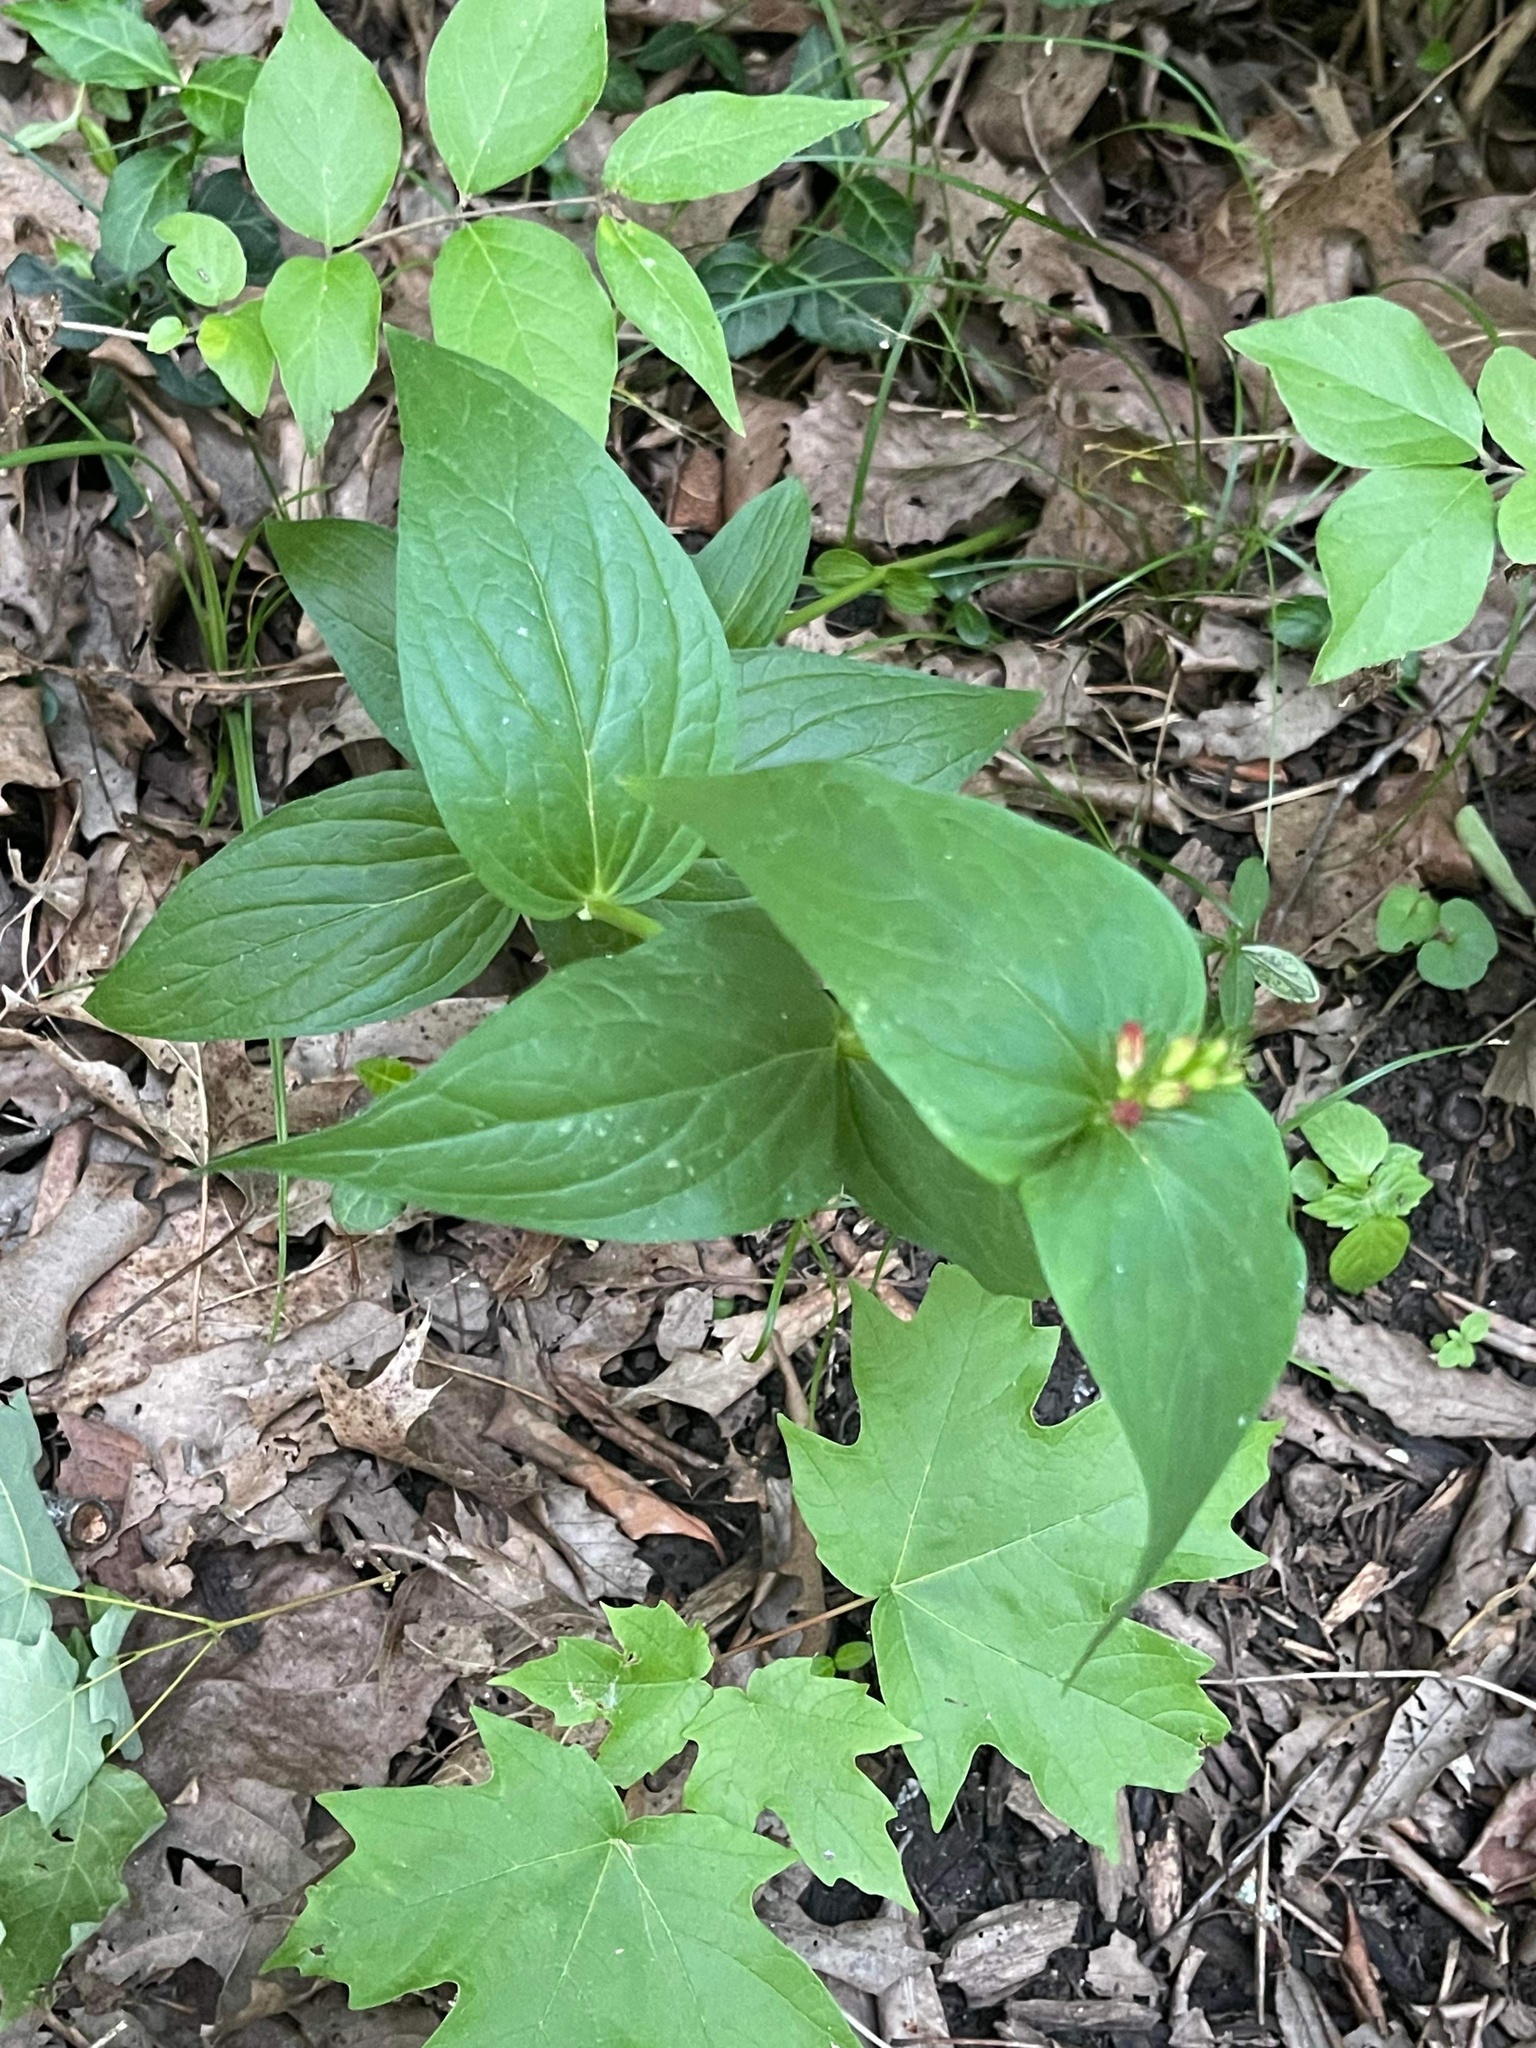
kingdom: Plantae
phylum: Tracheophyta
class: Magnoliopsida
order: Gentianales
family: Loganiaceae
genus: Spigelia
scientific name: Spigelia marilandica
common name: Indian-pink
